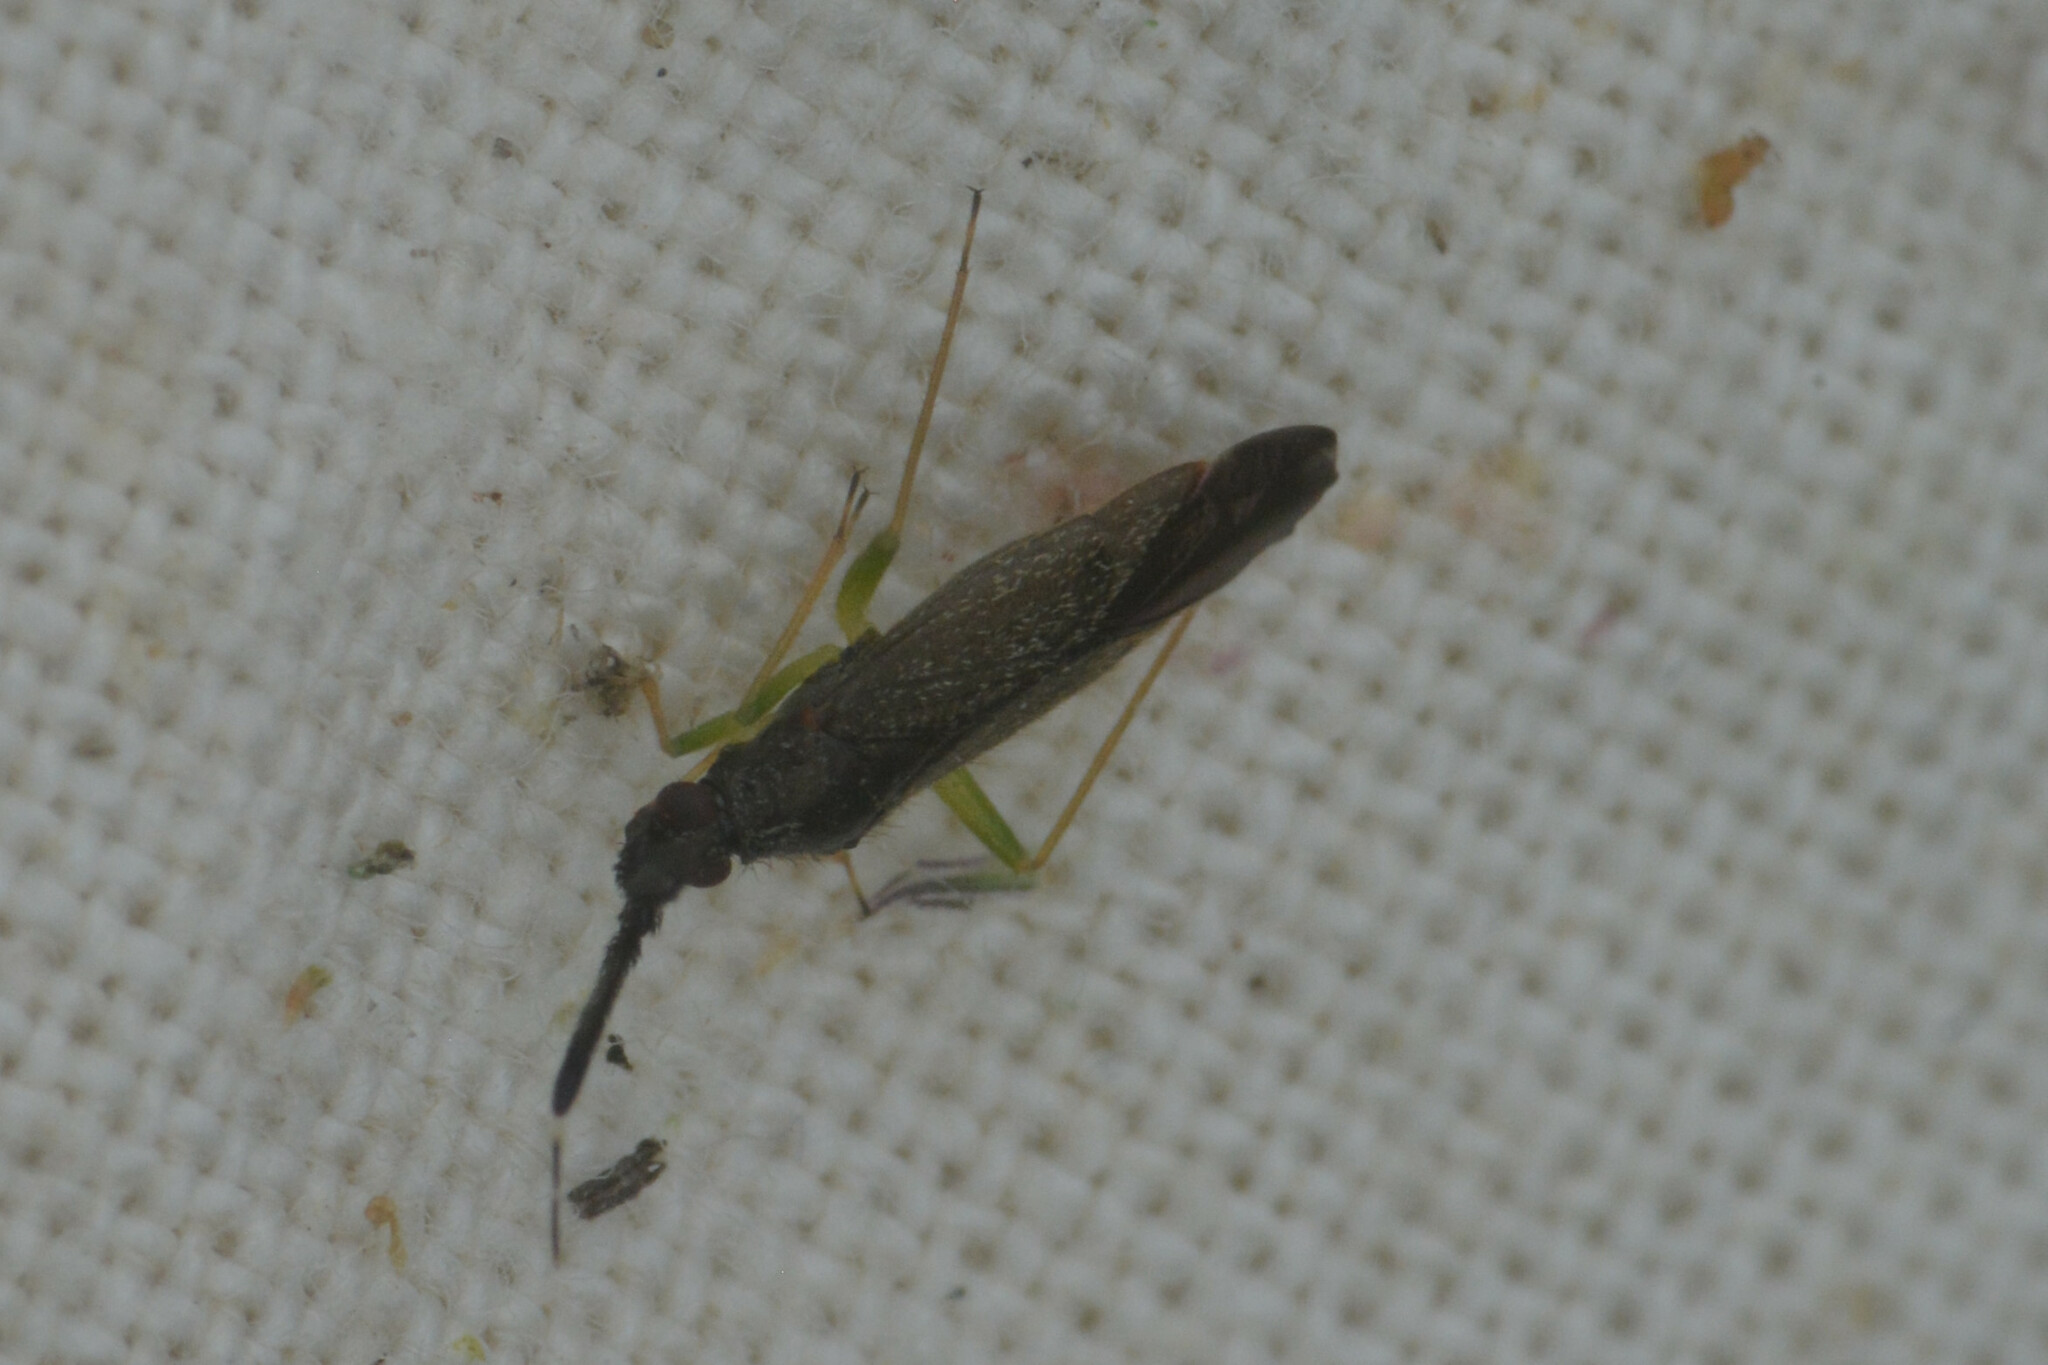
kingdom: Animalia
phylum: Arthropoda
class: Insecta
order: Hemiptera
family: Miridae
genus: Heterotoma
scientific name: Heterotoma planicornis
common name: Plant bug
